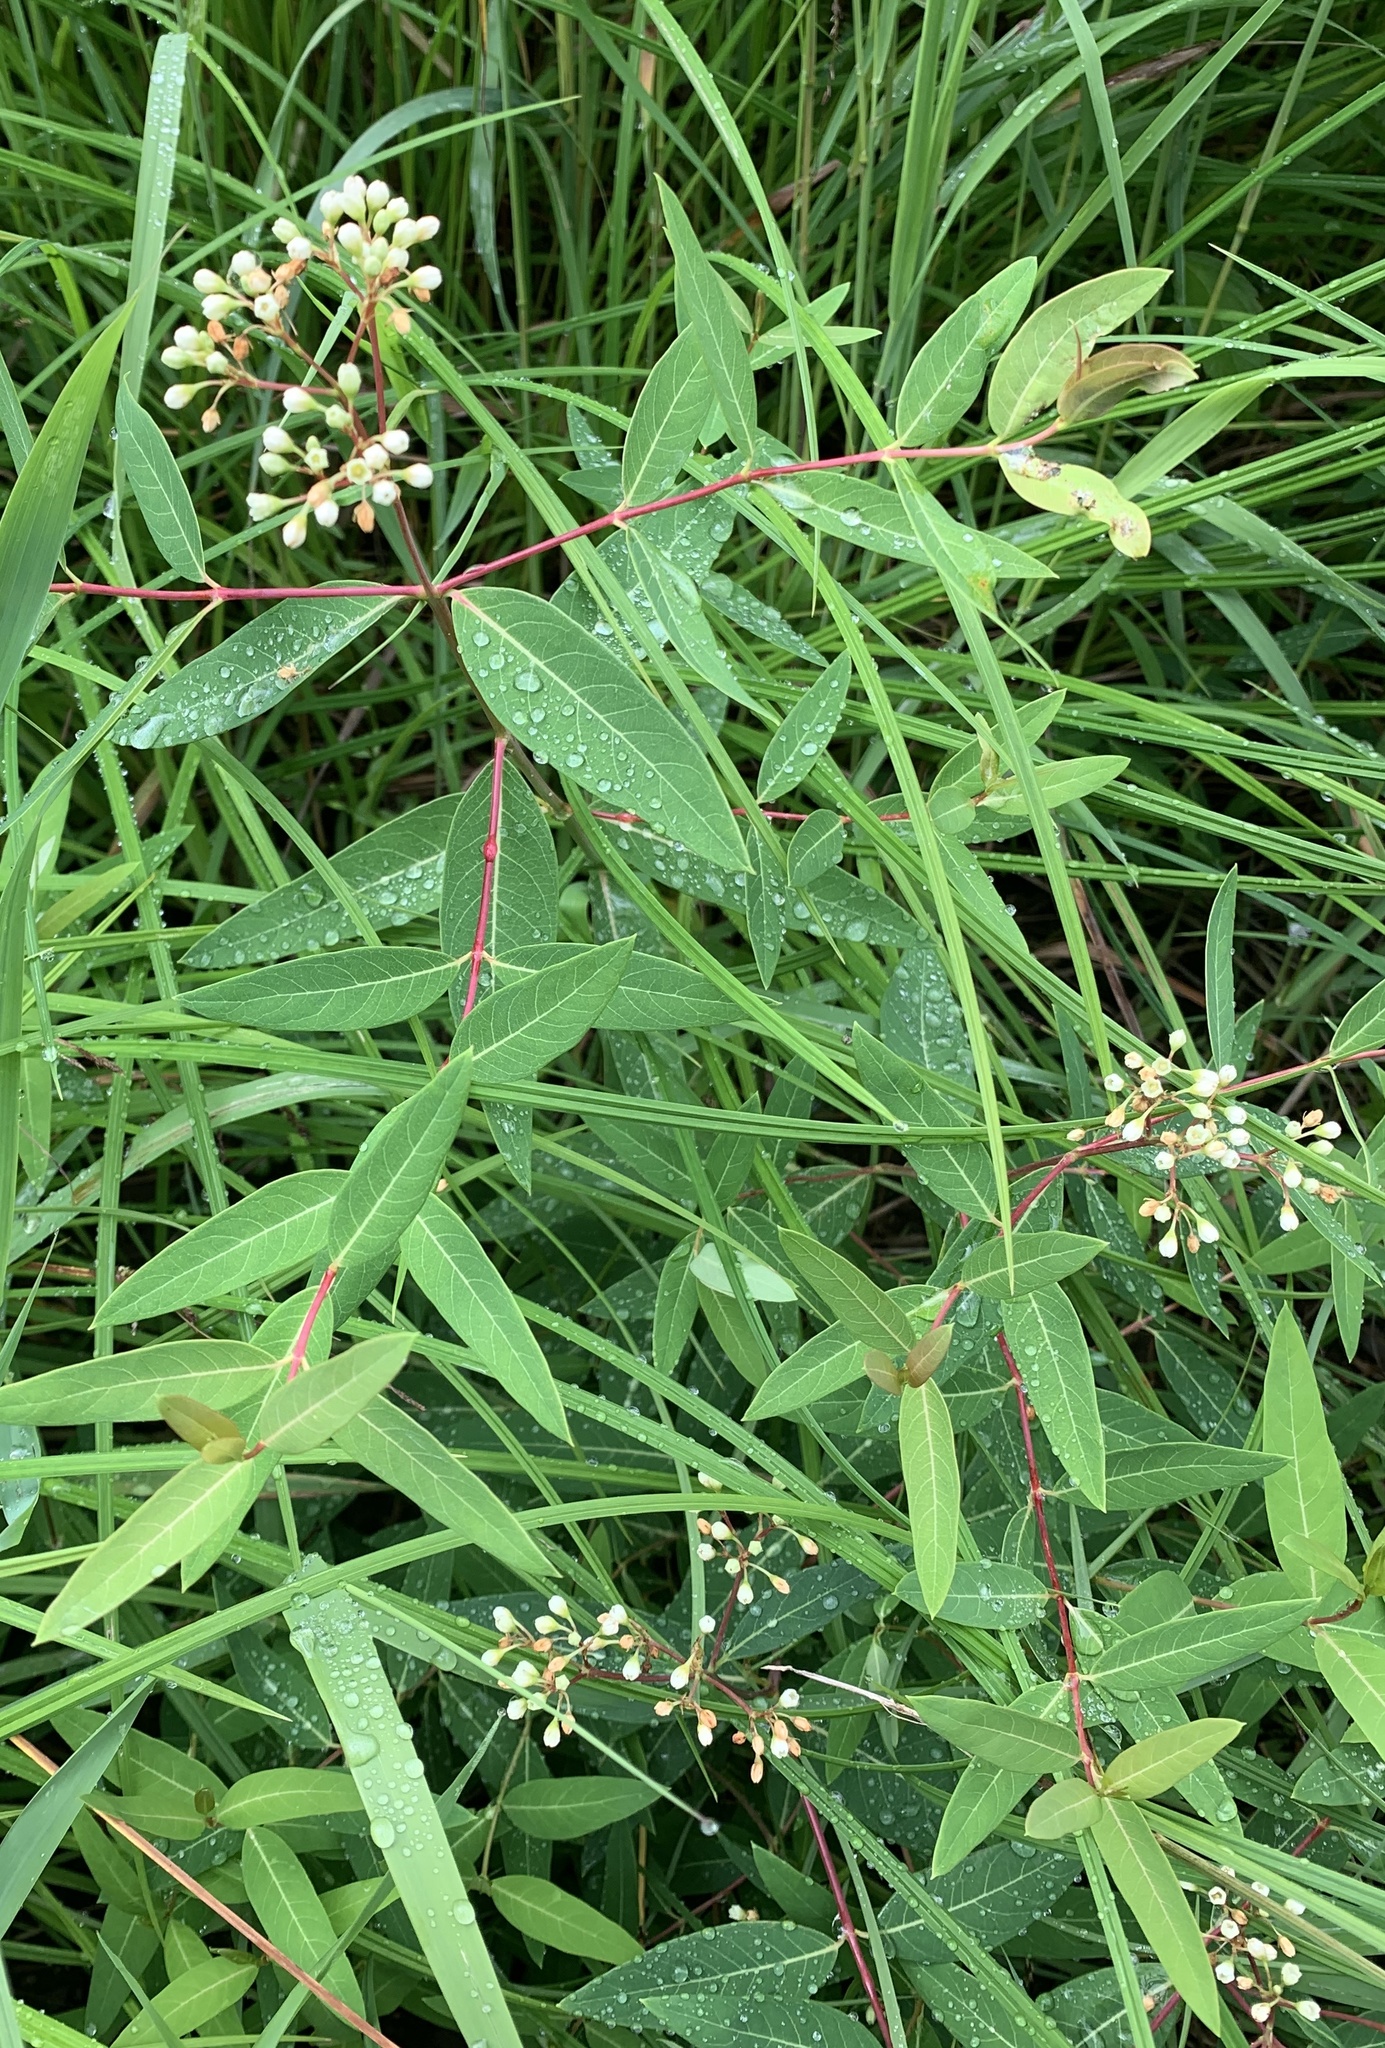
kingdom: Plantae
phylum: Tracheophyta
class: Magnoliopsida
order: Gentianales
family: Apocynaceae
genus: Apocynum
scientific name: Apocynum cannabinum
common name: Hemp dogbane
